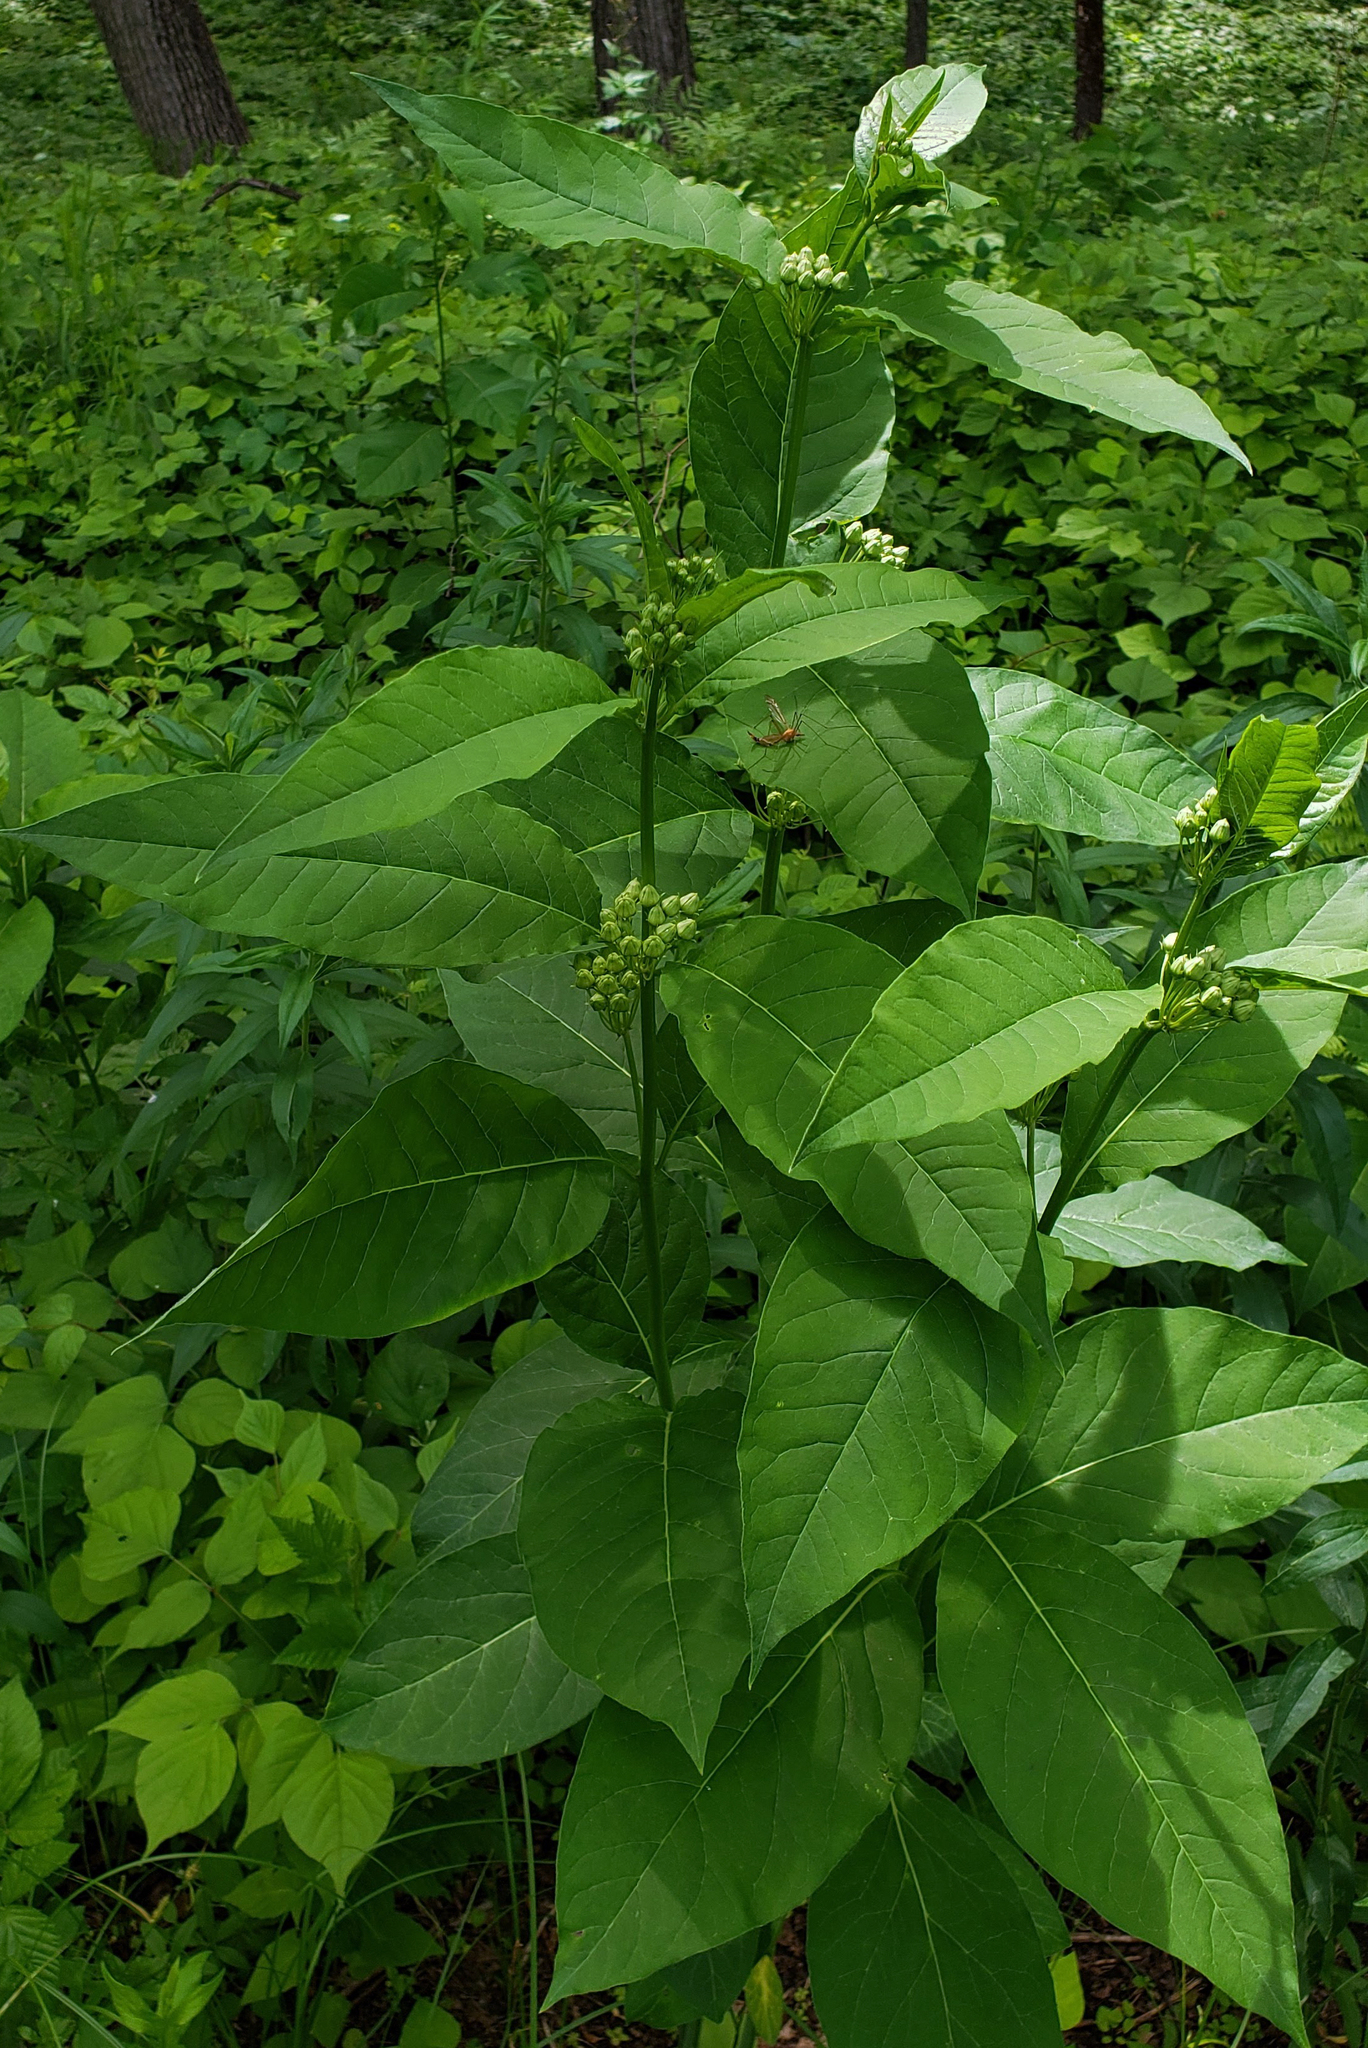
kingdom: Plantae
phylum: Tracheophyta
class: Magnoliopsida
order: Gentianales
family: Apocynaceae
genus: Asclepias
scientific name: Asclepias exaltata
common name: Poke milkweed
